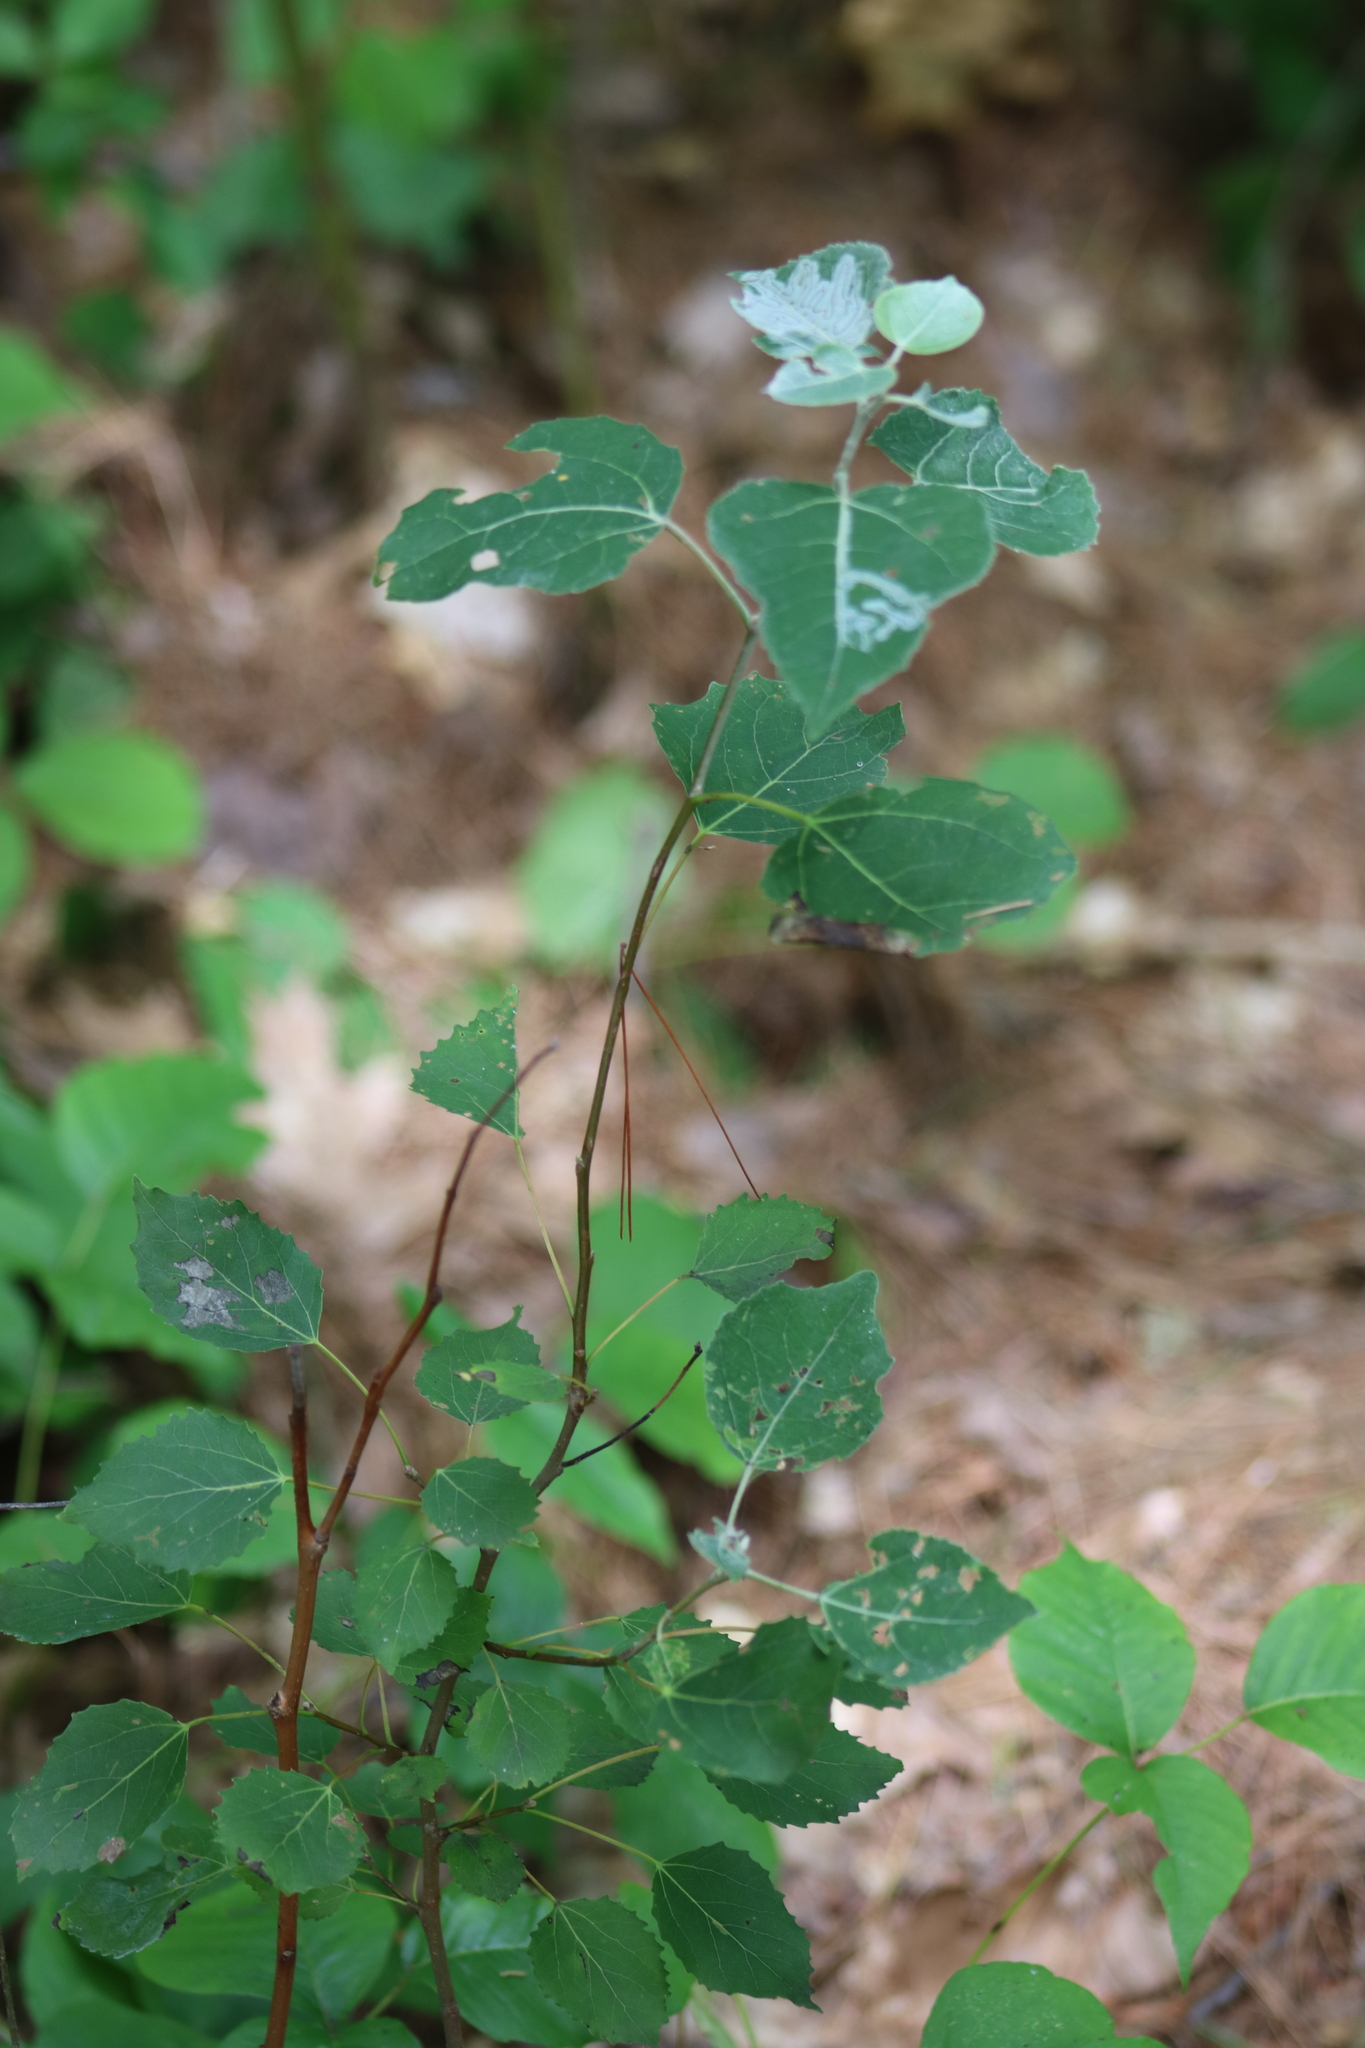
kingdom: Plantae
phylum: Tracheophyta
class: Magnoliopsida
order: Malpighiales
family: Salicaceae
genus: Populus
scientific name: Populus grandidentata
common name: Bigtooth aspen
